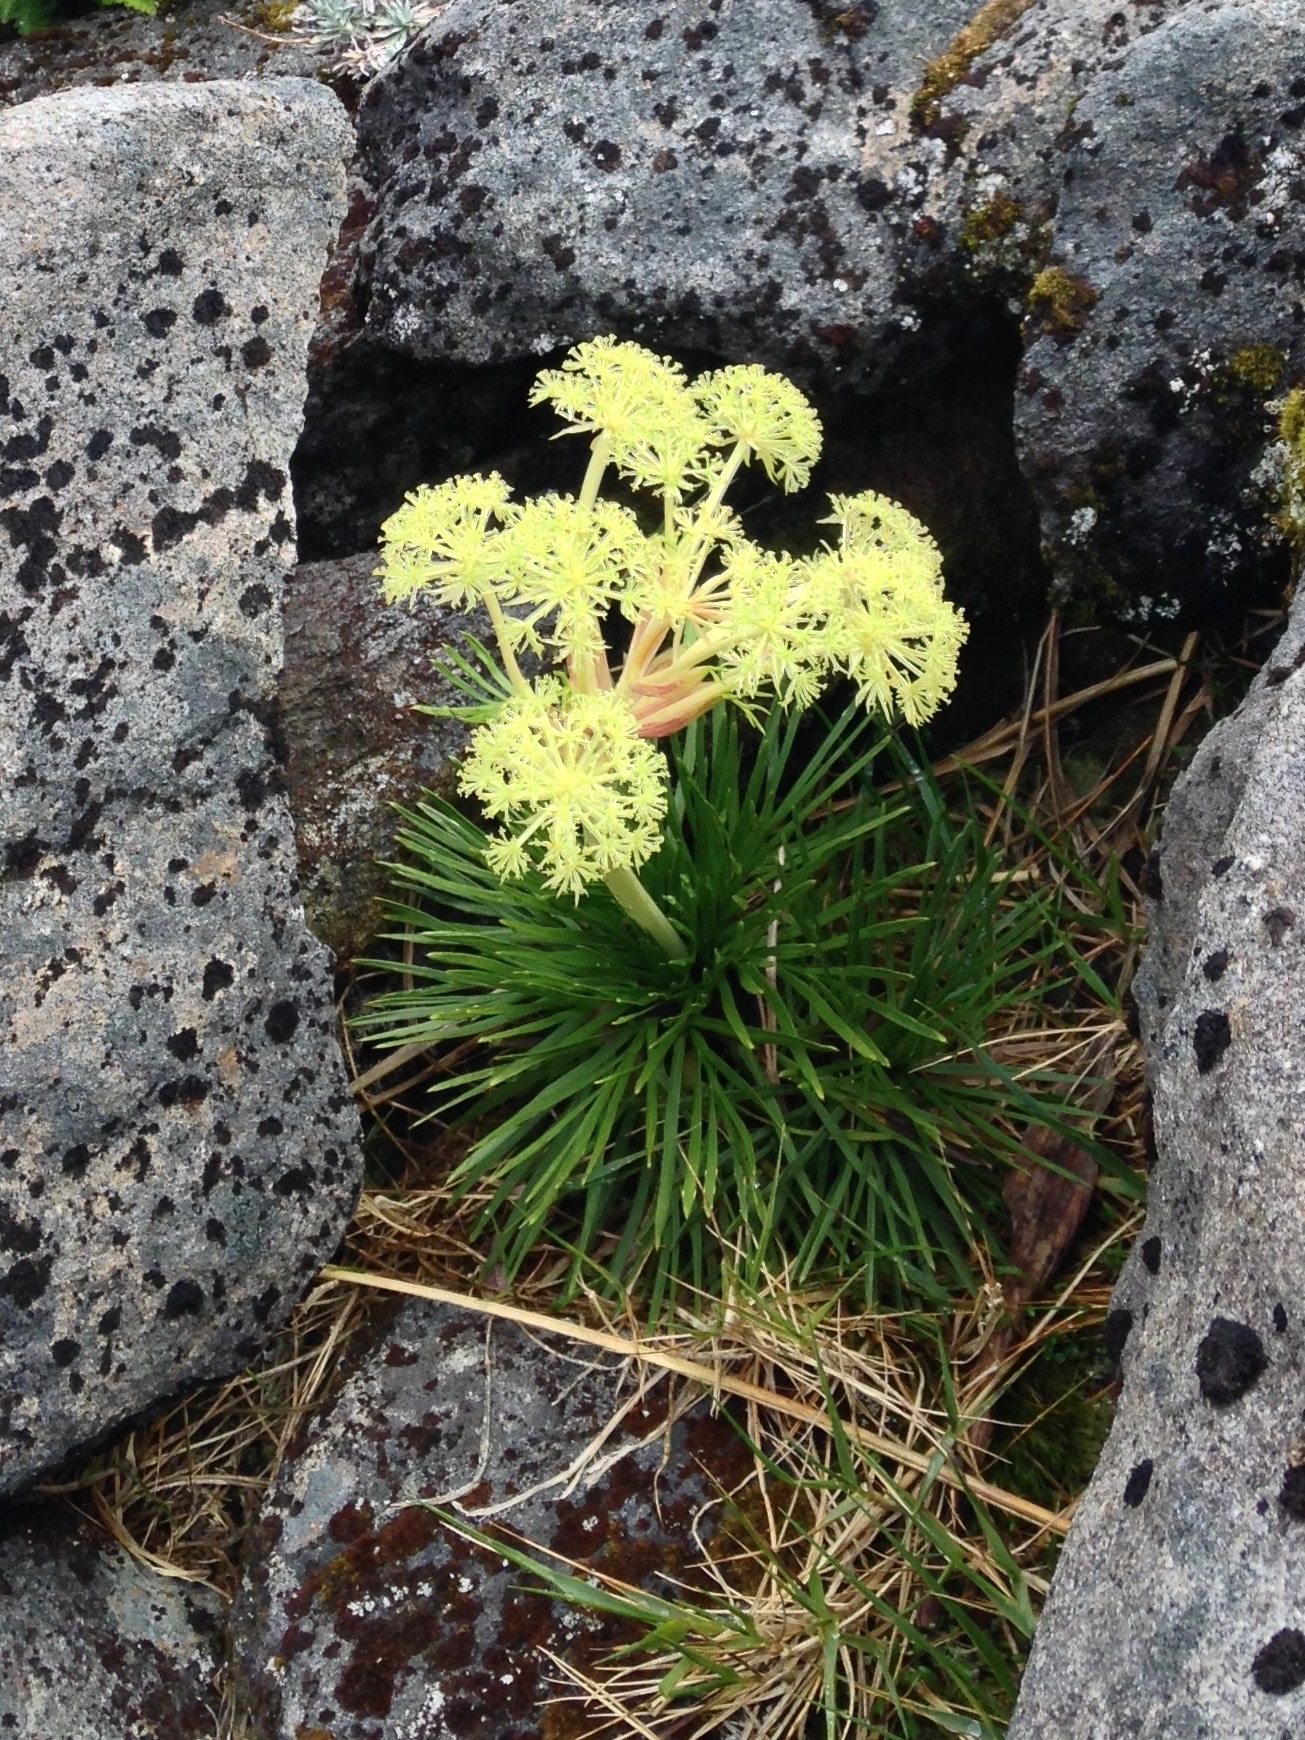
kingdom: Plantae
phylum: Tracheophyta
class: Magnoliopsida
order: Apiales
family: Apiaceae
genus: Aciphylla
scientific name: Aciphylla congesta
